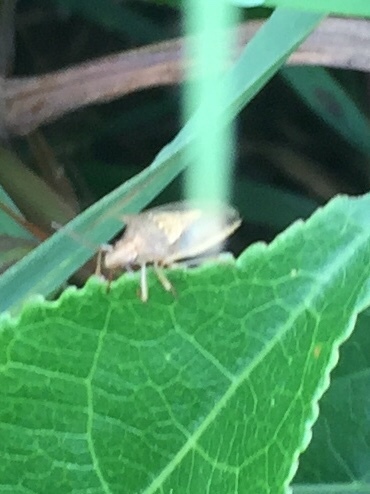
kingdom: Animalia
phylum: Arthropoda
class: Insecta
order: Hemiptera
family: Pentatomidae
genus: Oebalus
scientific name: Oebalus pugnax
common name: Rice stink bug
